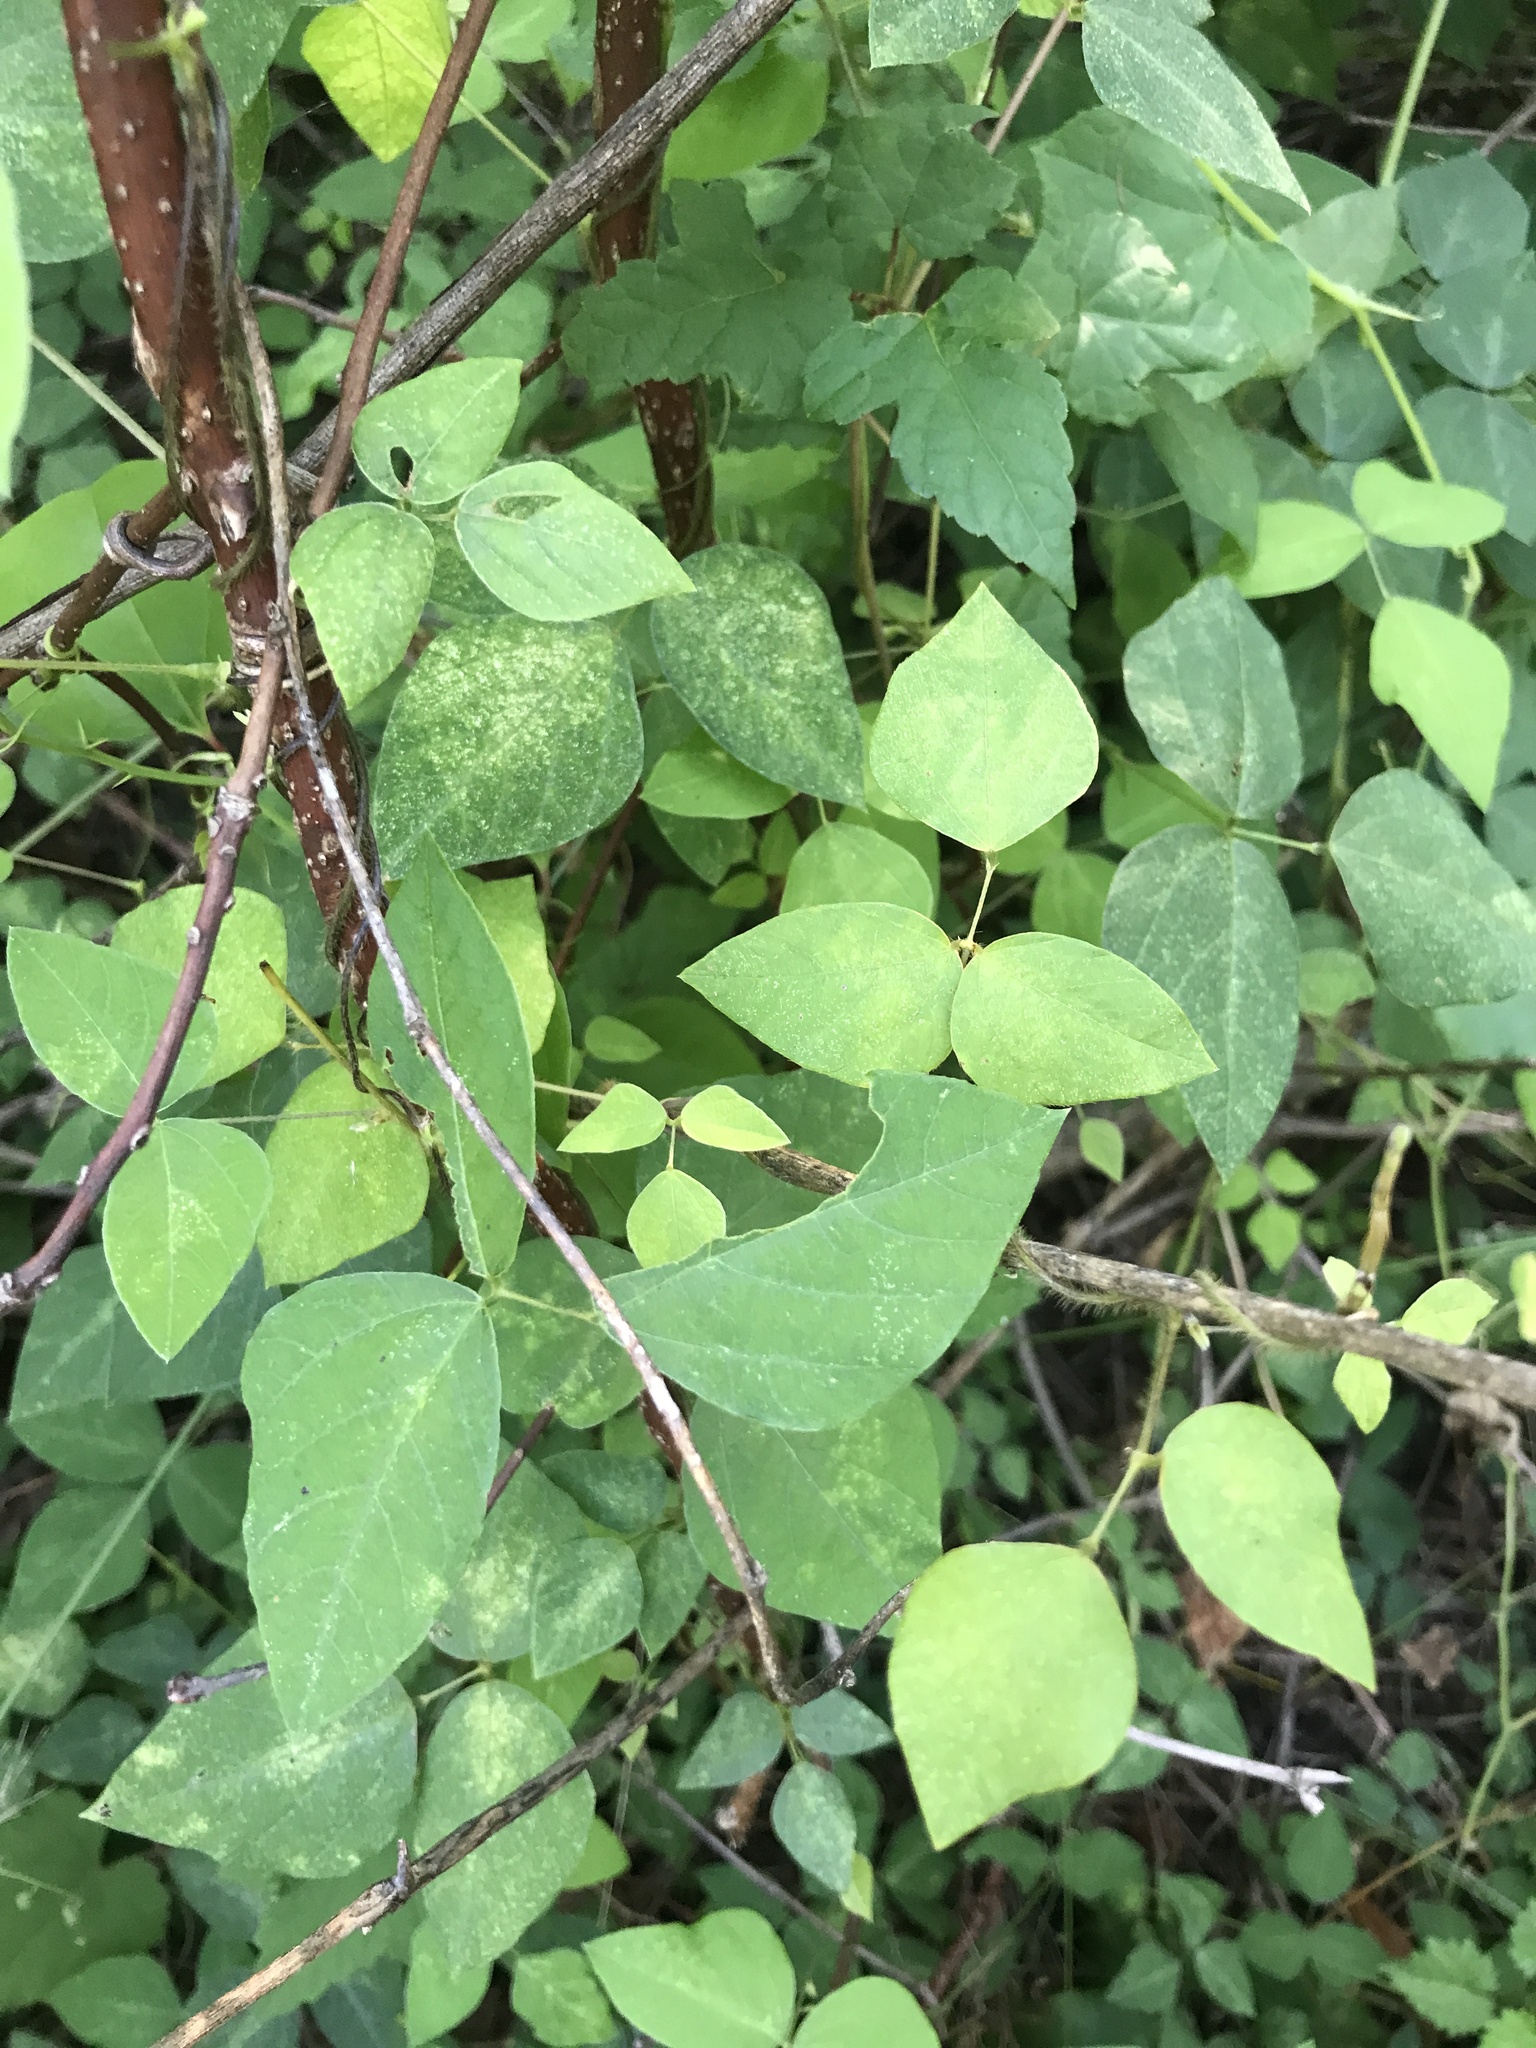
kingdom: Plantae
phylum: Tracheophyta
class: Magnoliopsida
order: Fabales
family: Fabaceae
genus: Amphicarpaea
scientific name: Amphicarpaea bracteata
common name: American hog peanut
